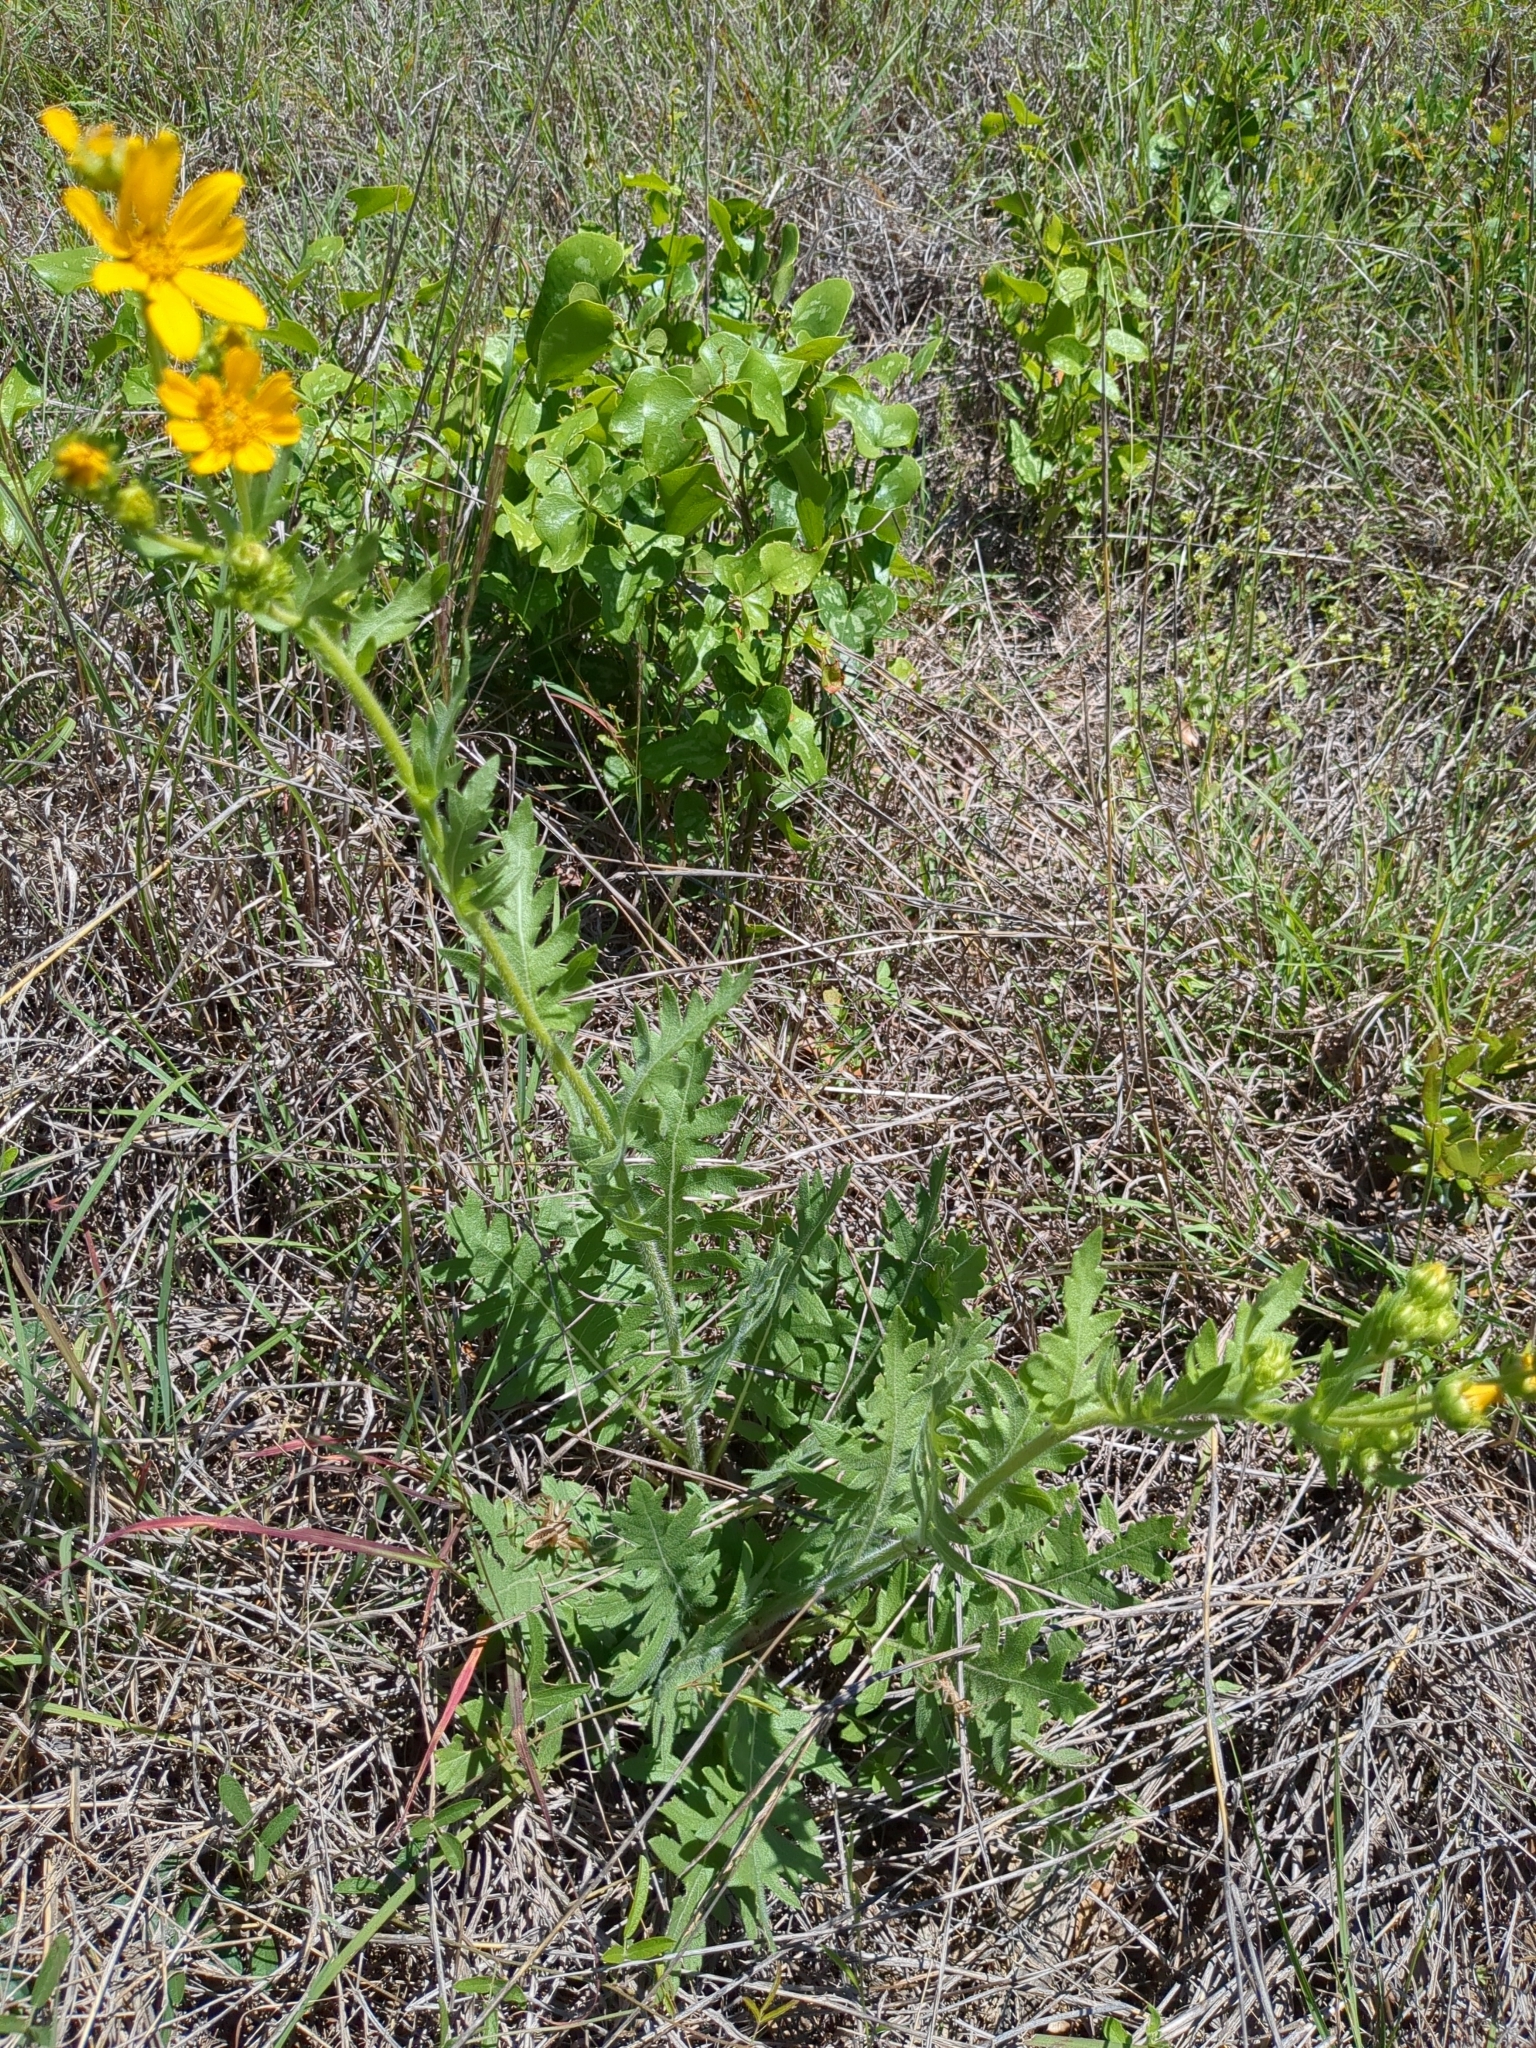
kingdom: Plantae
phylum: Tracheophyta
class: Magnoliopsida
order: Asterales
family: Asteraceae
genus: Engelmannia
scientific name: Engelmannia peristenia
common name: Engelmann's daisy
